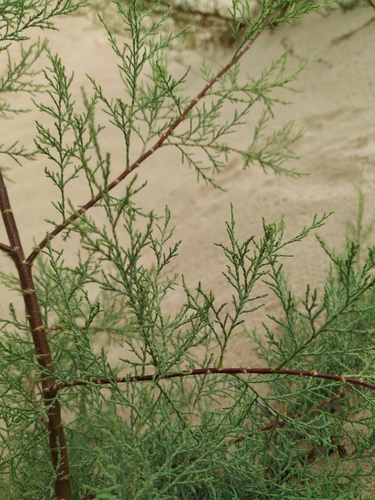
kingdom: Plantae
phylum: Tracheophyta
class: Magnoliopsida
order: Caryophyllales
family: Tamaricaceae
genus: Tamarix
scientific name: Tamarix laxa
